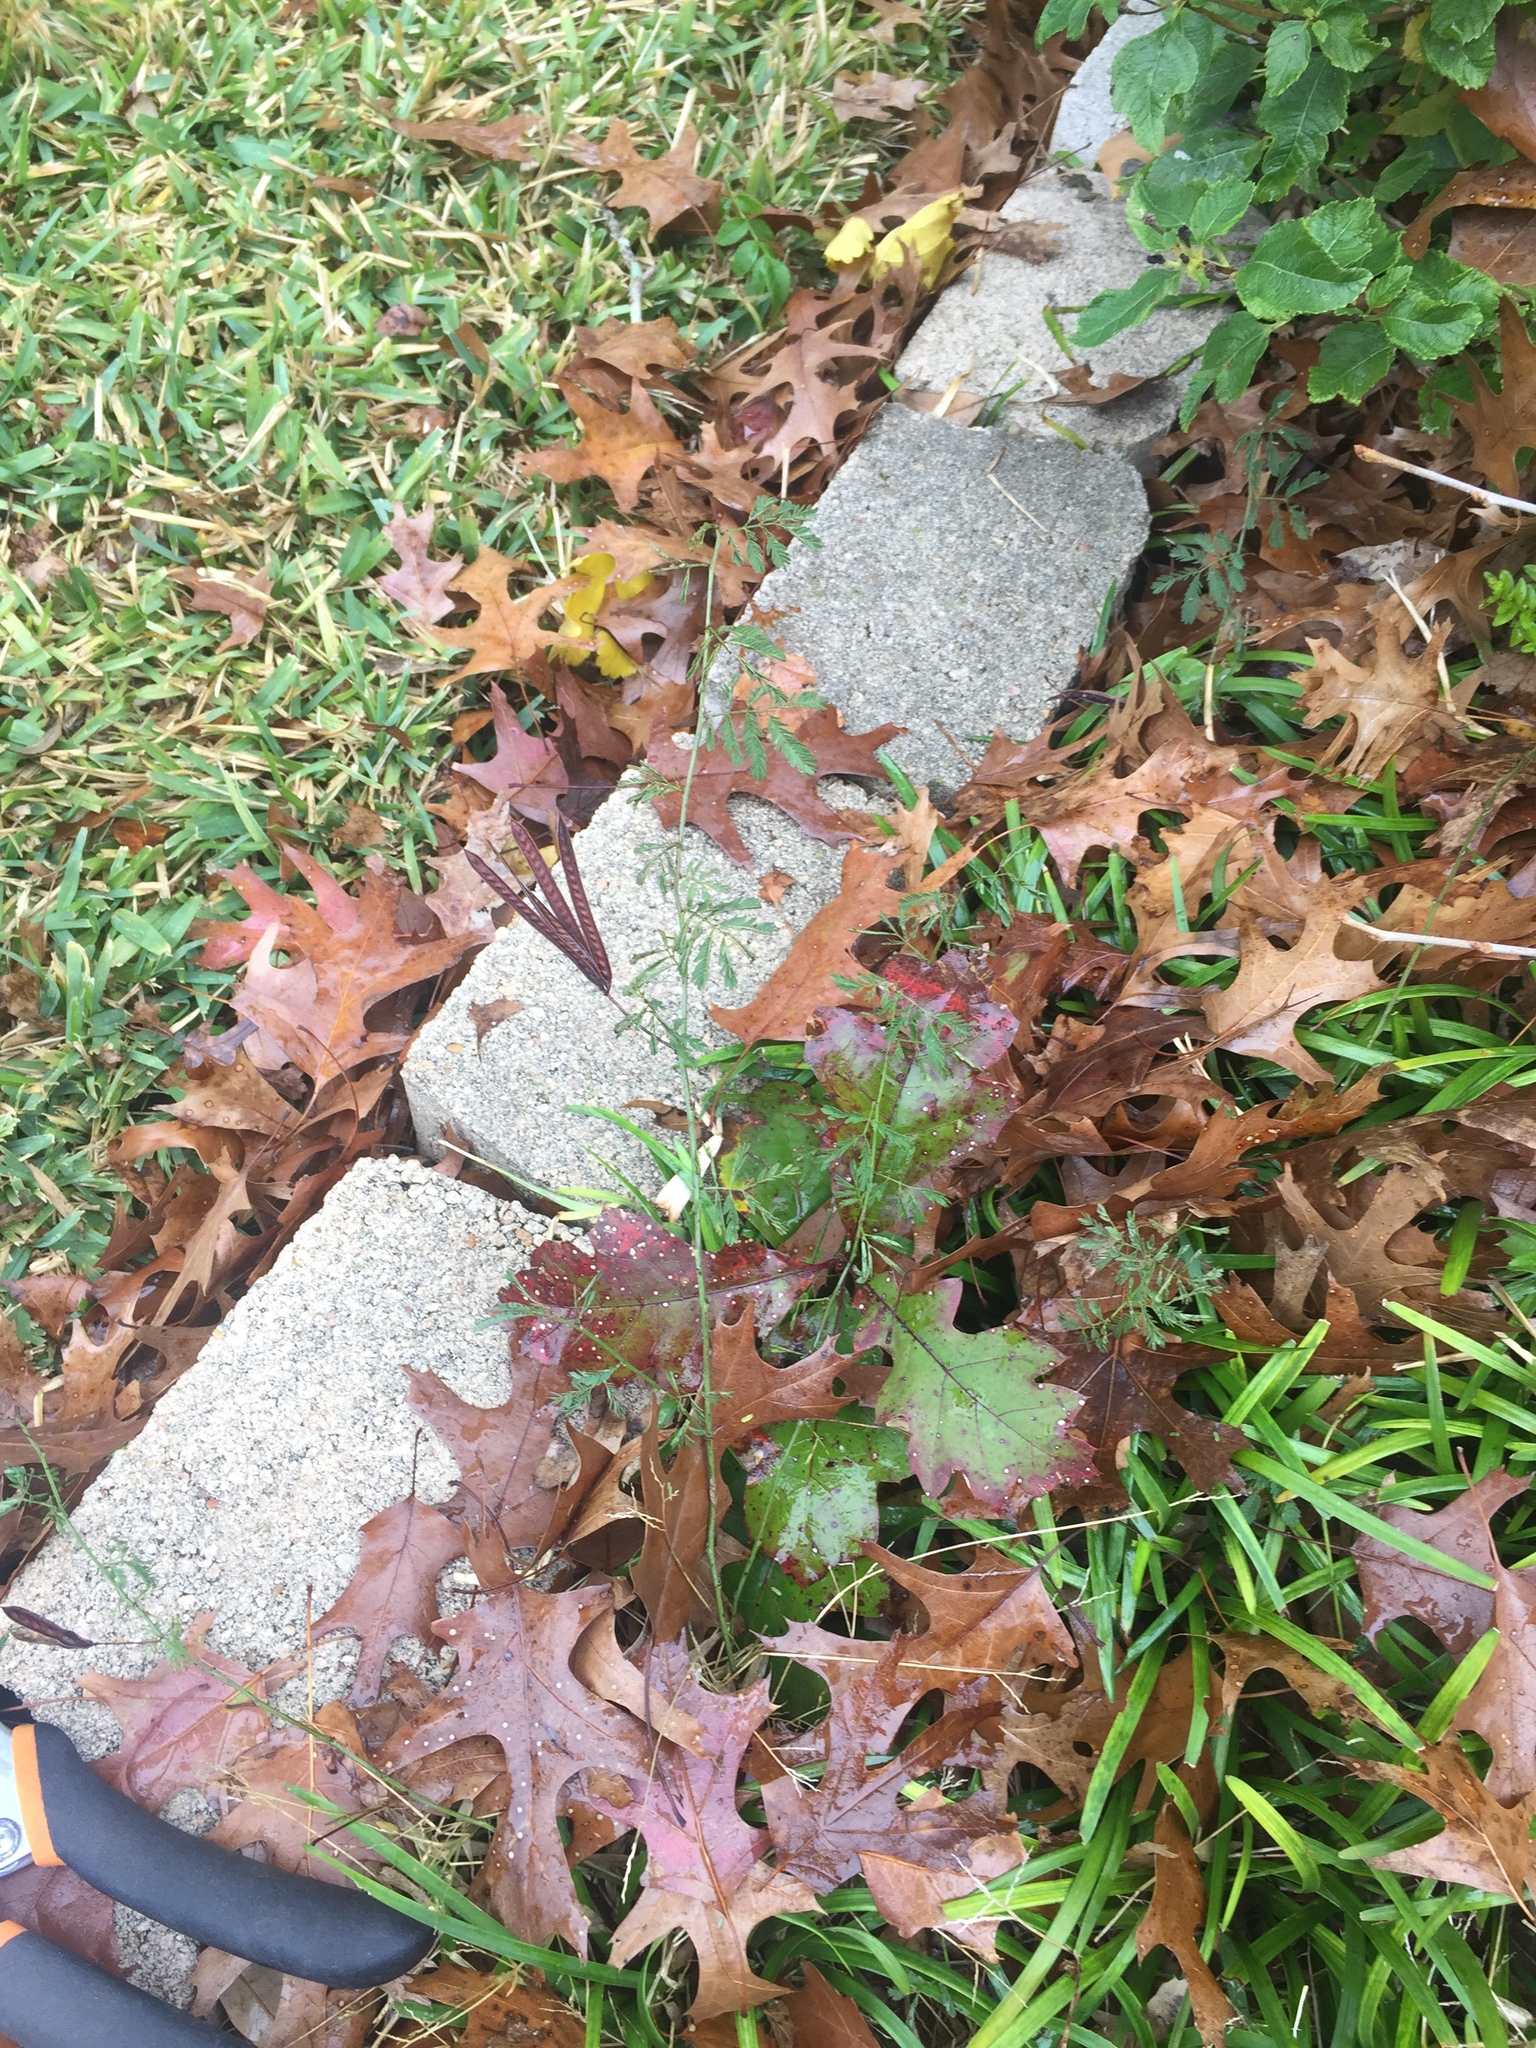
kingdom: Plantae
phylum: Tracheophyta
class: Magnoliopsida
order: Fabales
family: Fabaceae
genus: Desmanthus
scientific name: Desmanthus virgatus
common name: Wild tantan
